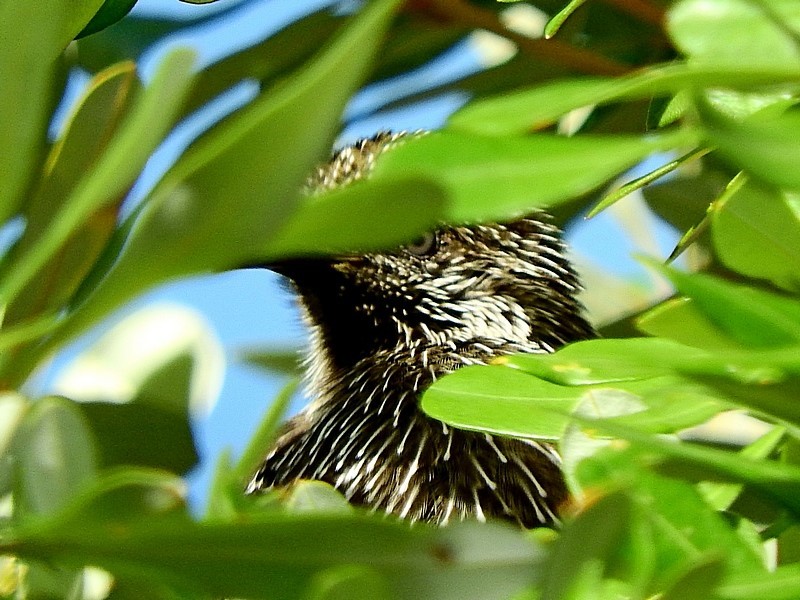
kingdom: Animalia
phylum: Chordata
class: Aves
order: Passeriformes
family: Meliphagidae
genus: Anthochaera
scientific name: Anthochaera chrysoptera
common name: Little wattlebird
